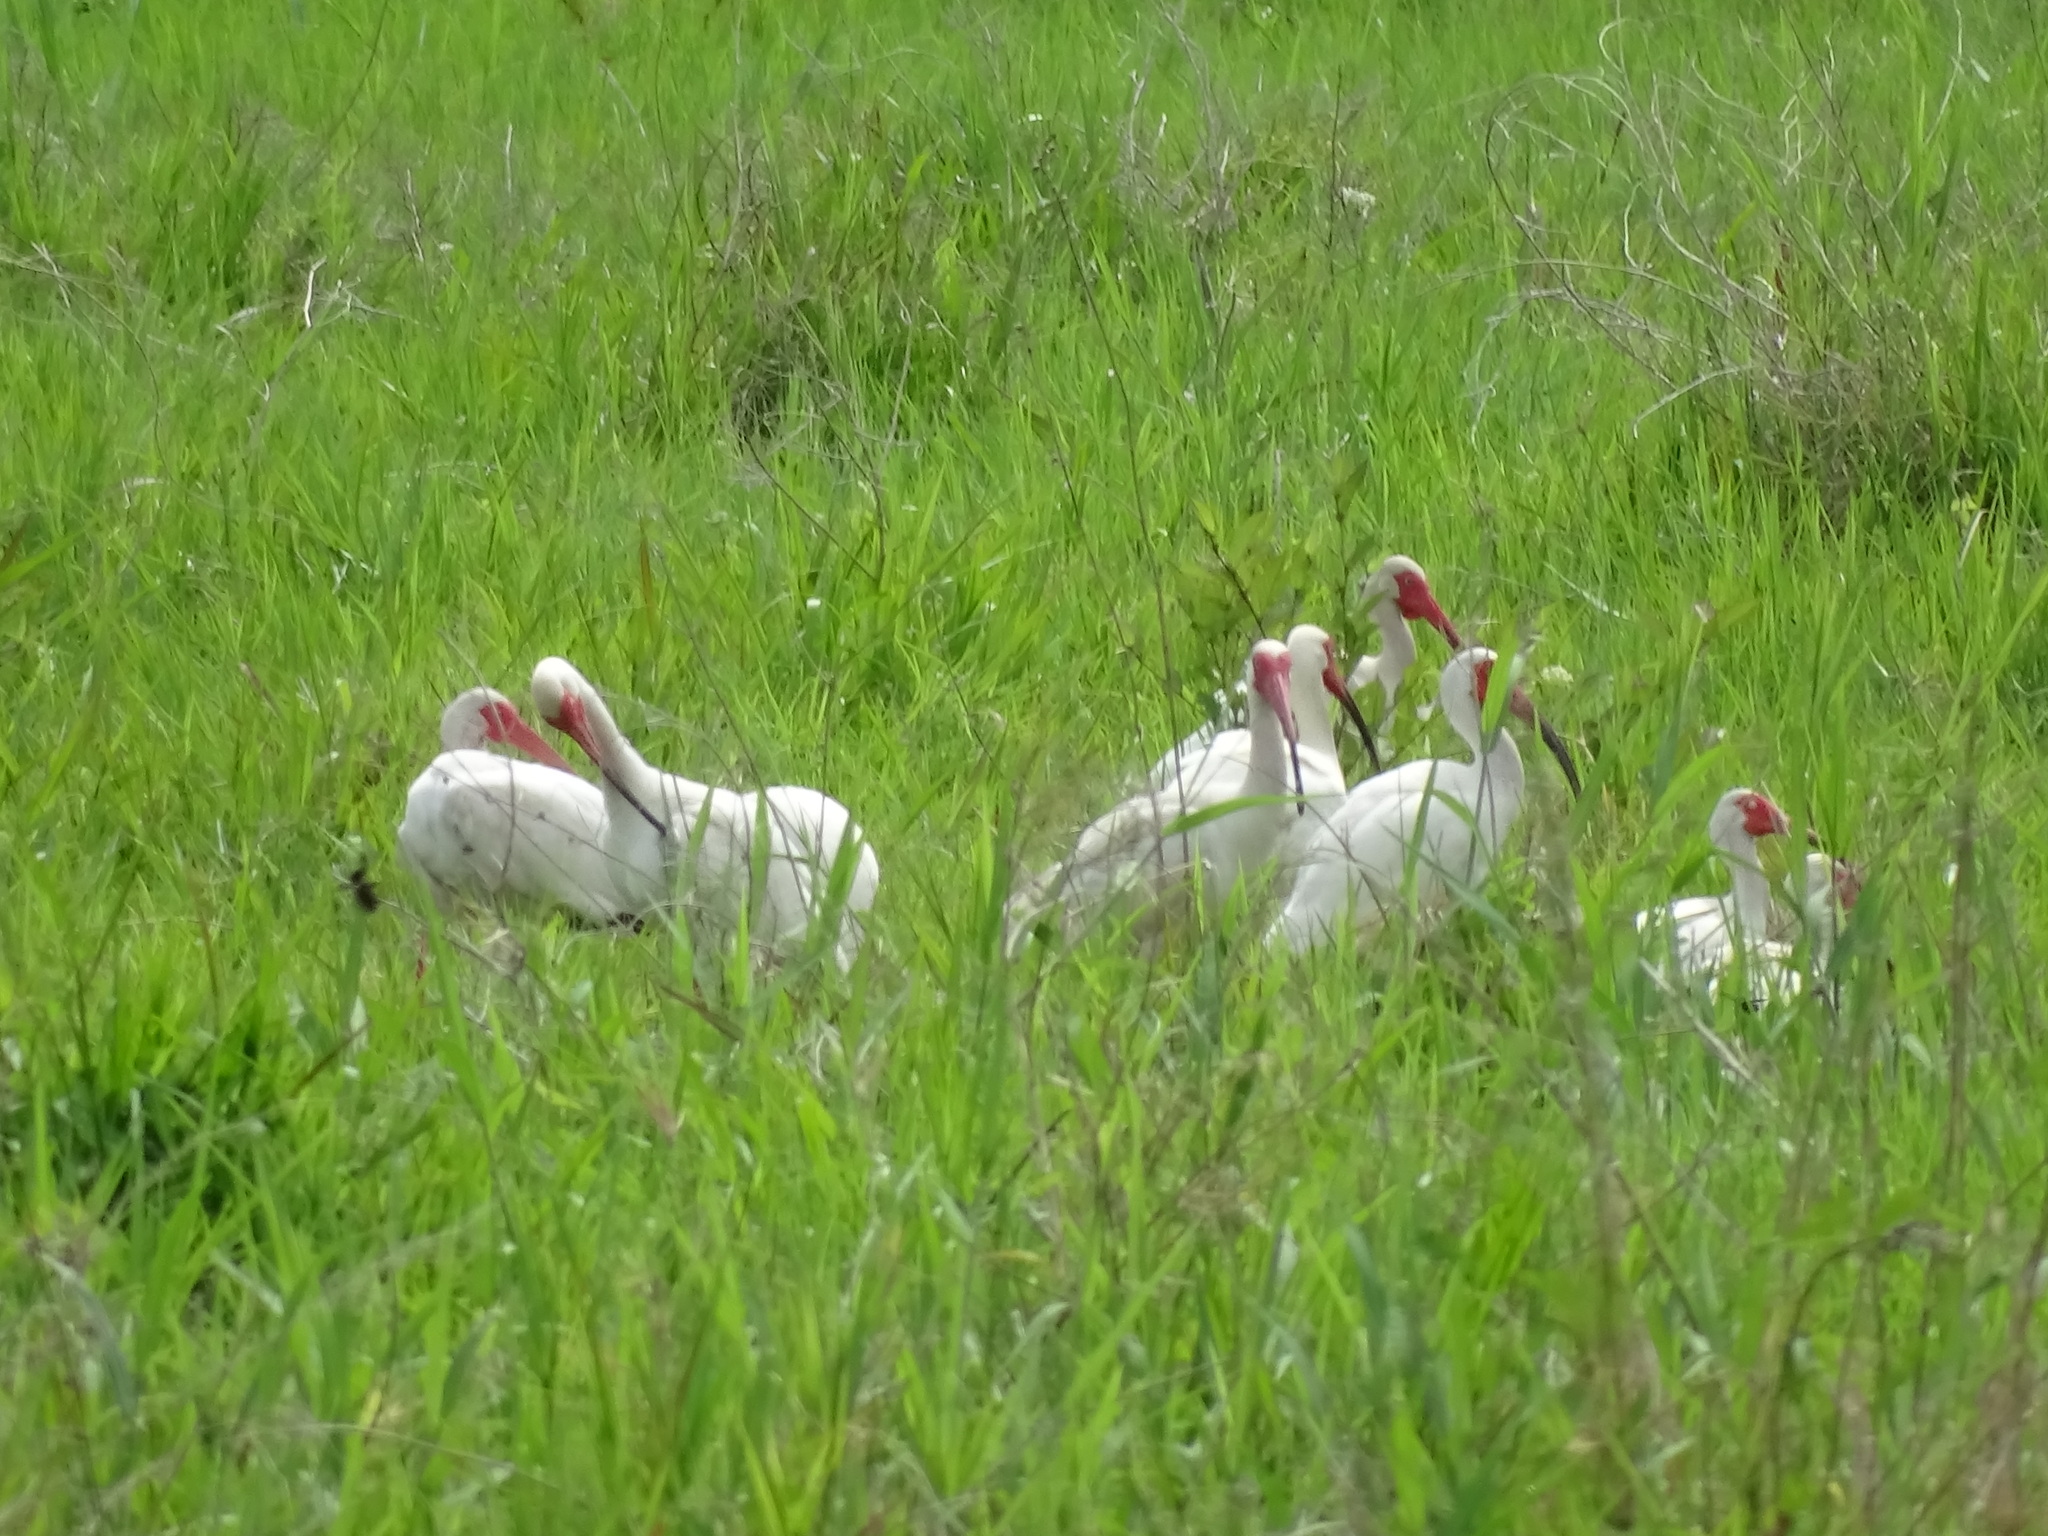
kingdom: Animalia
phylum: Chordata
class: Aves
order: Pelecaniformes
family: Threskiornithidae
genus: Eudocimus
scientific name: Eudocimus albus
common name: White ibis
